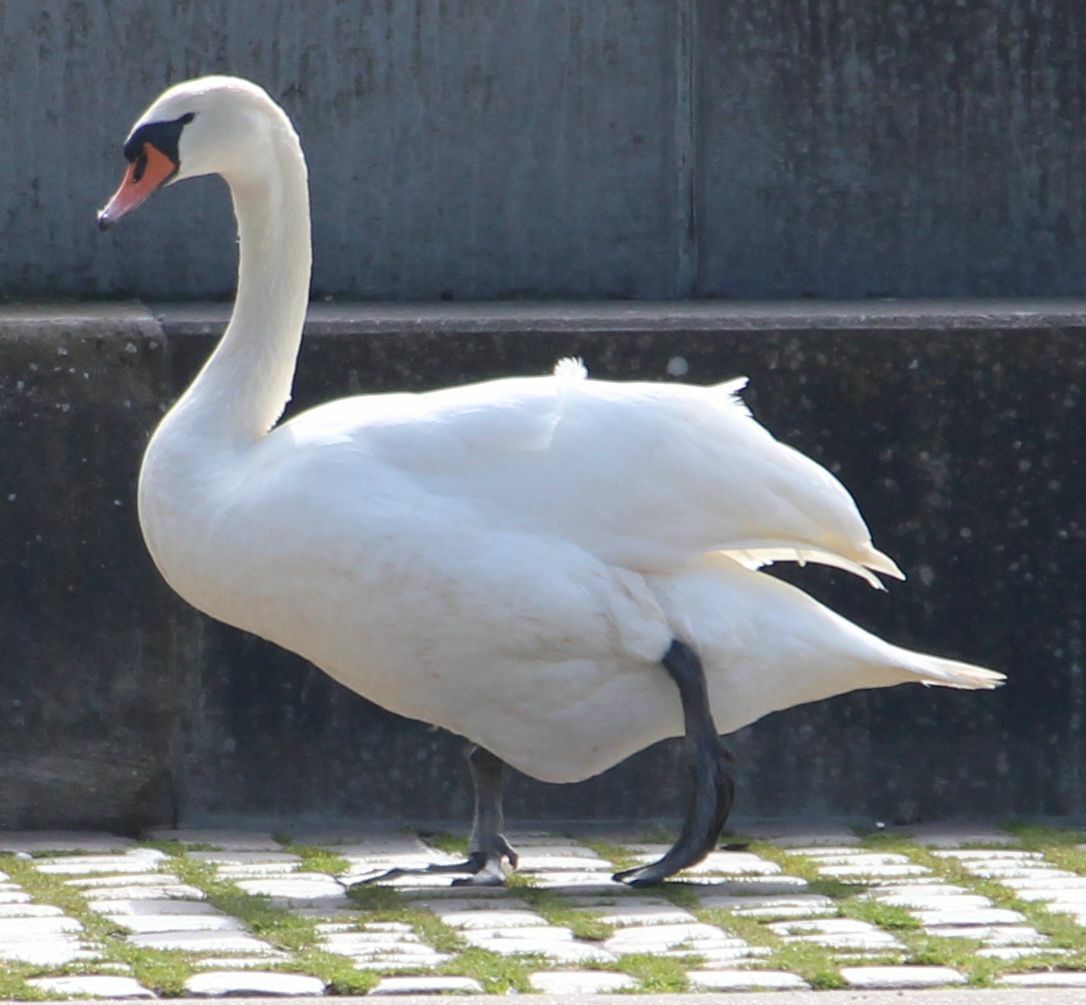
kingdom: Animalia
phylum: Chordata
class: Aves
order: Anseriformes
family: Anatidae
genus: Cygnus
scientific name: Cygnus olor
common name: Mute swan
